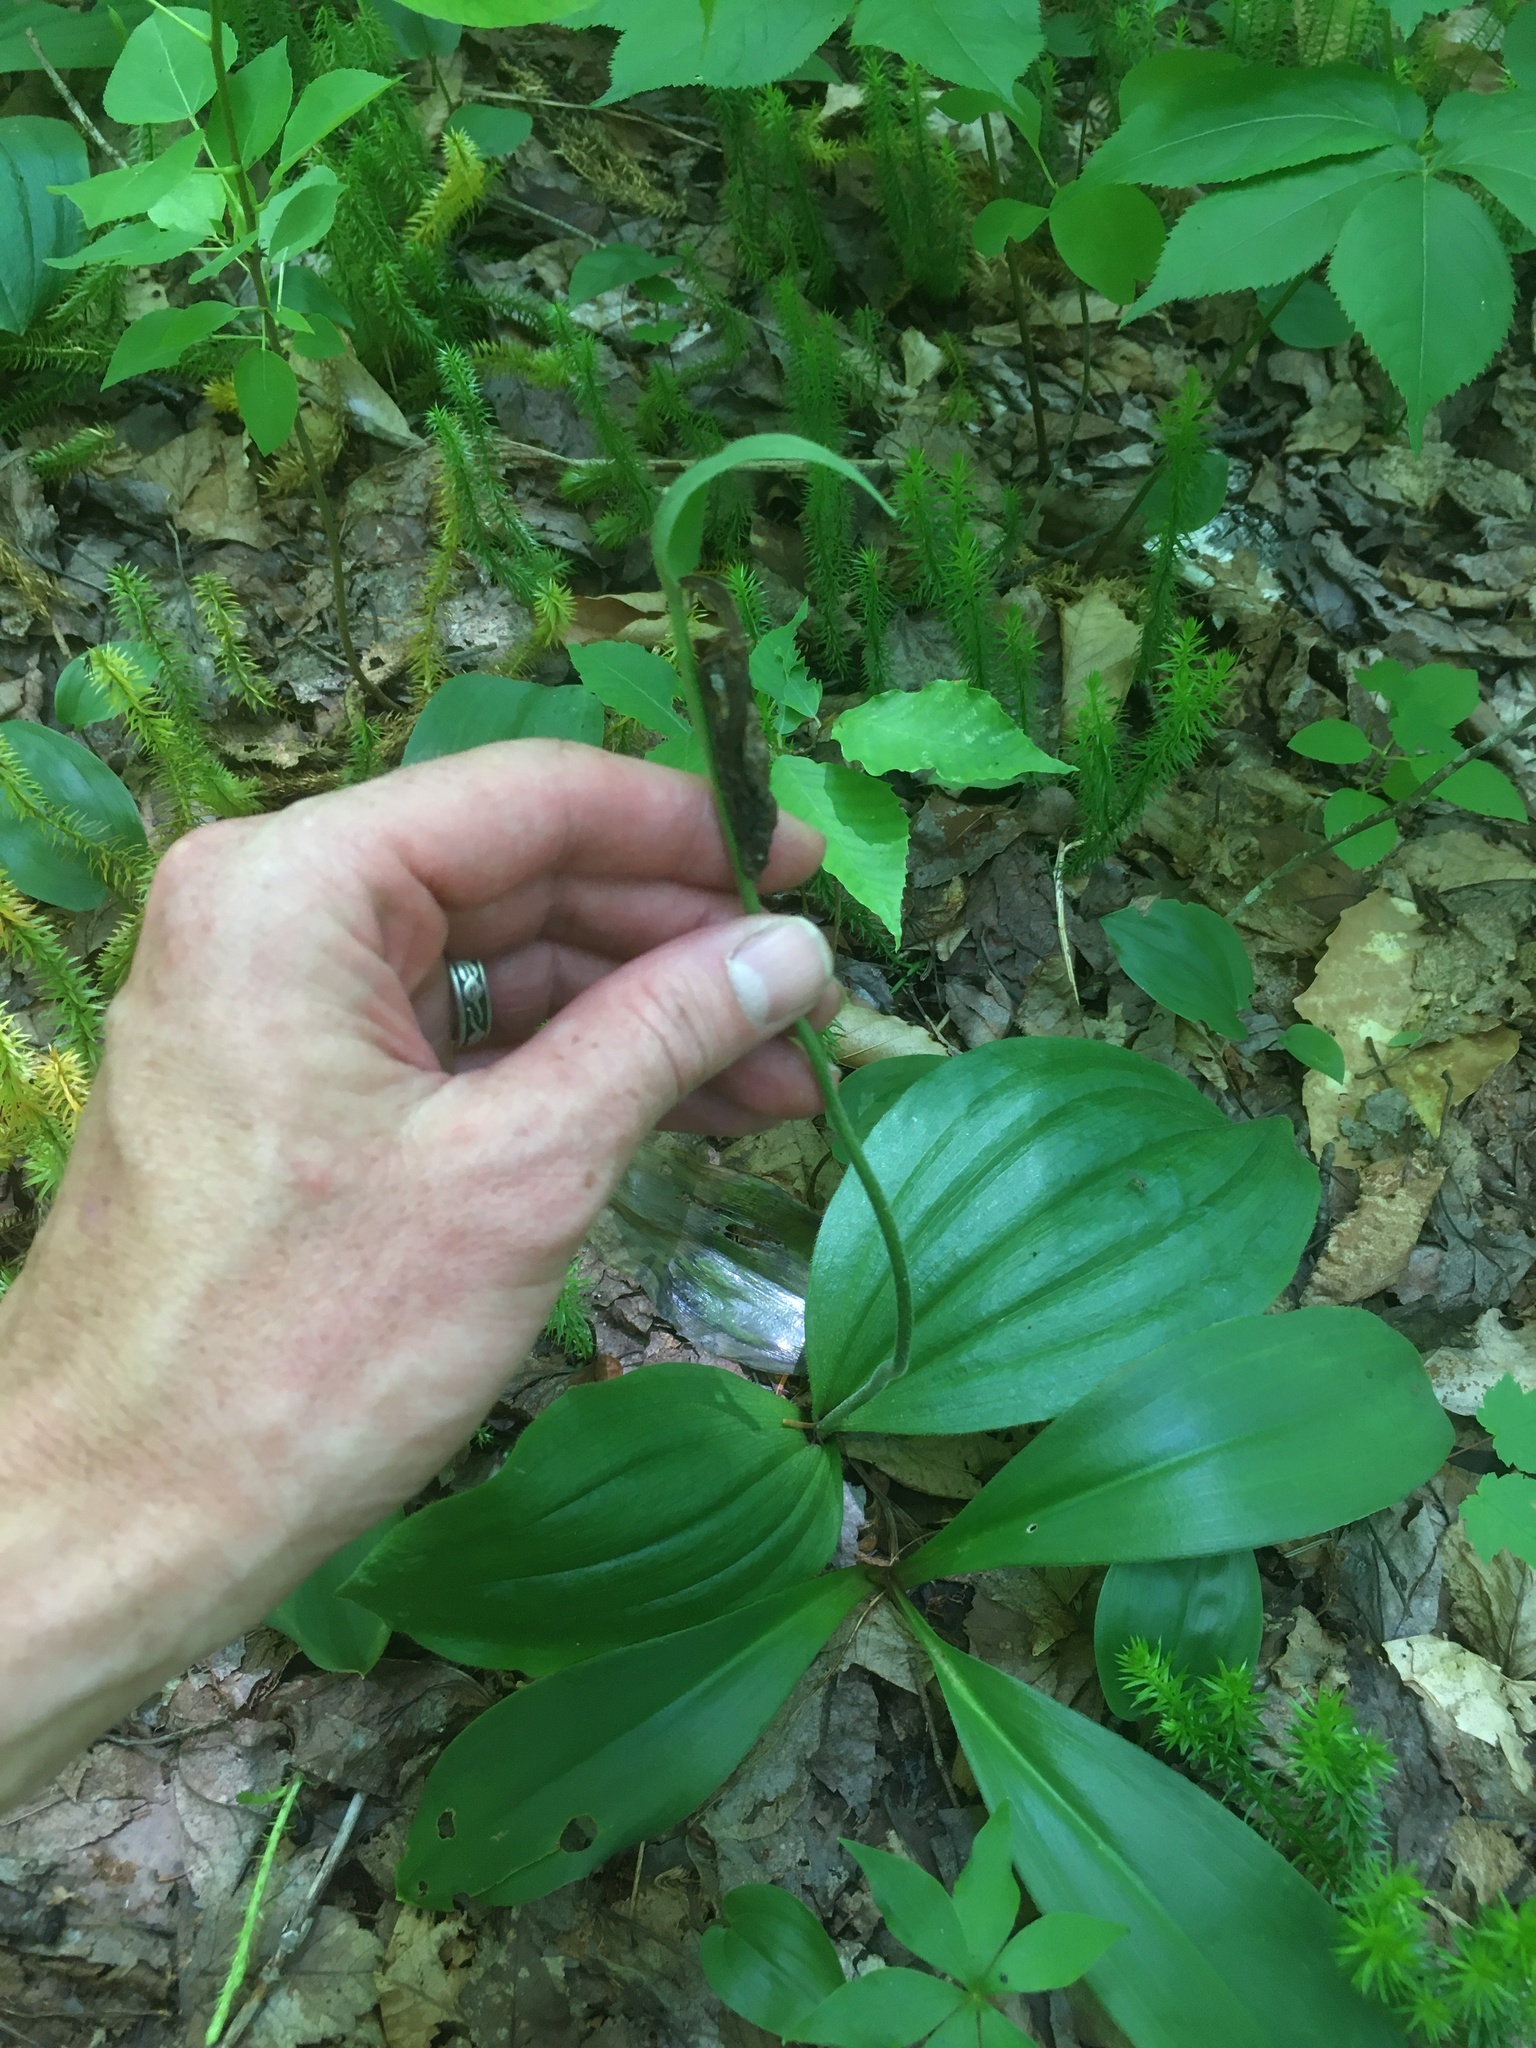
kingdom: Plantae
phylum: Tracheophyta
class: Liliopsida
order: Asparagales
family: Orchidaceae
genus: Cypripedium
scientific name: Cypripedium acaule
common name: Pink lady's-slipper
